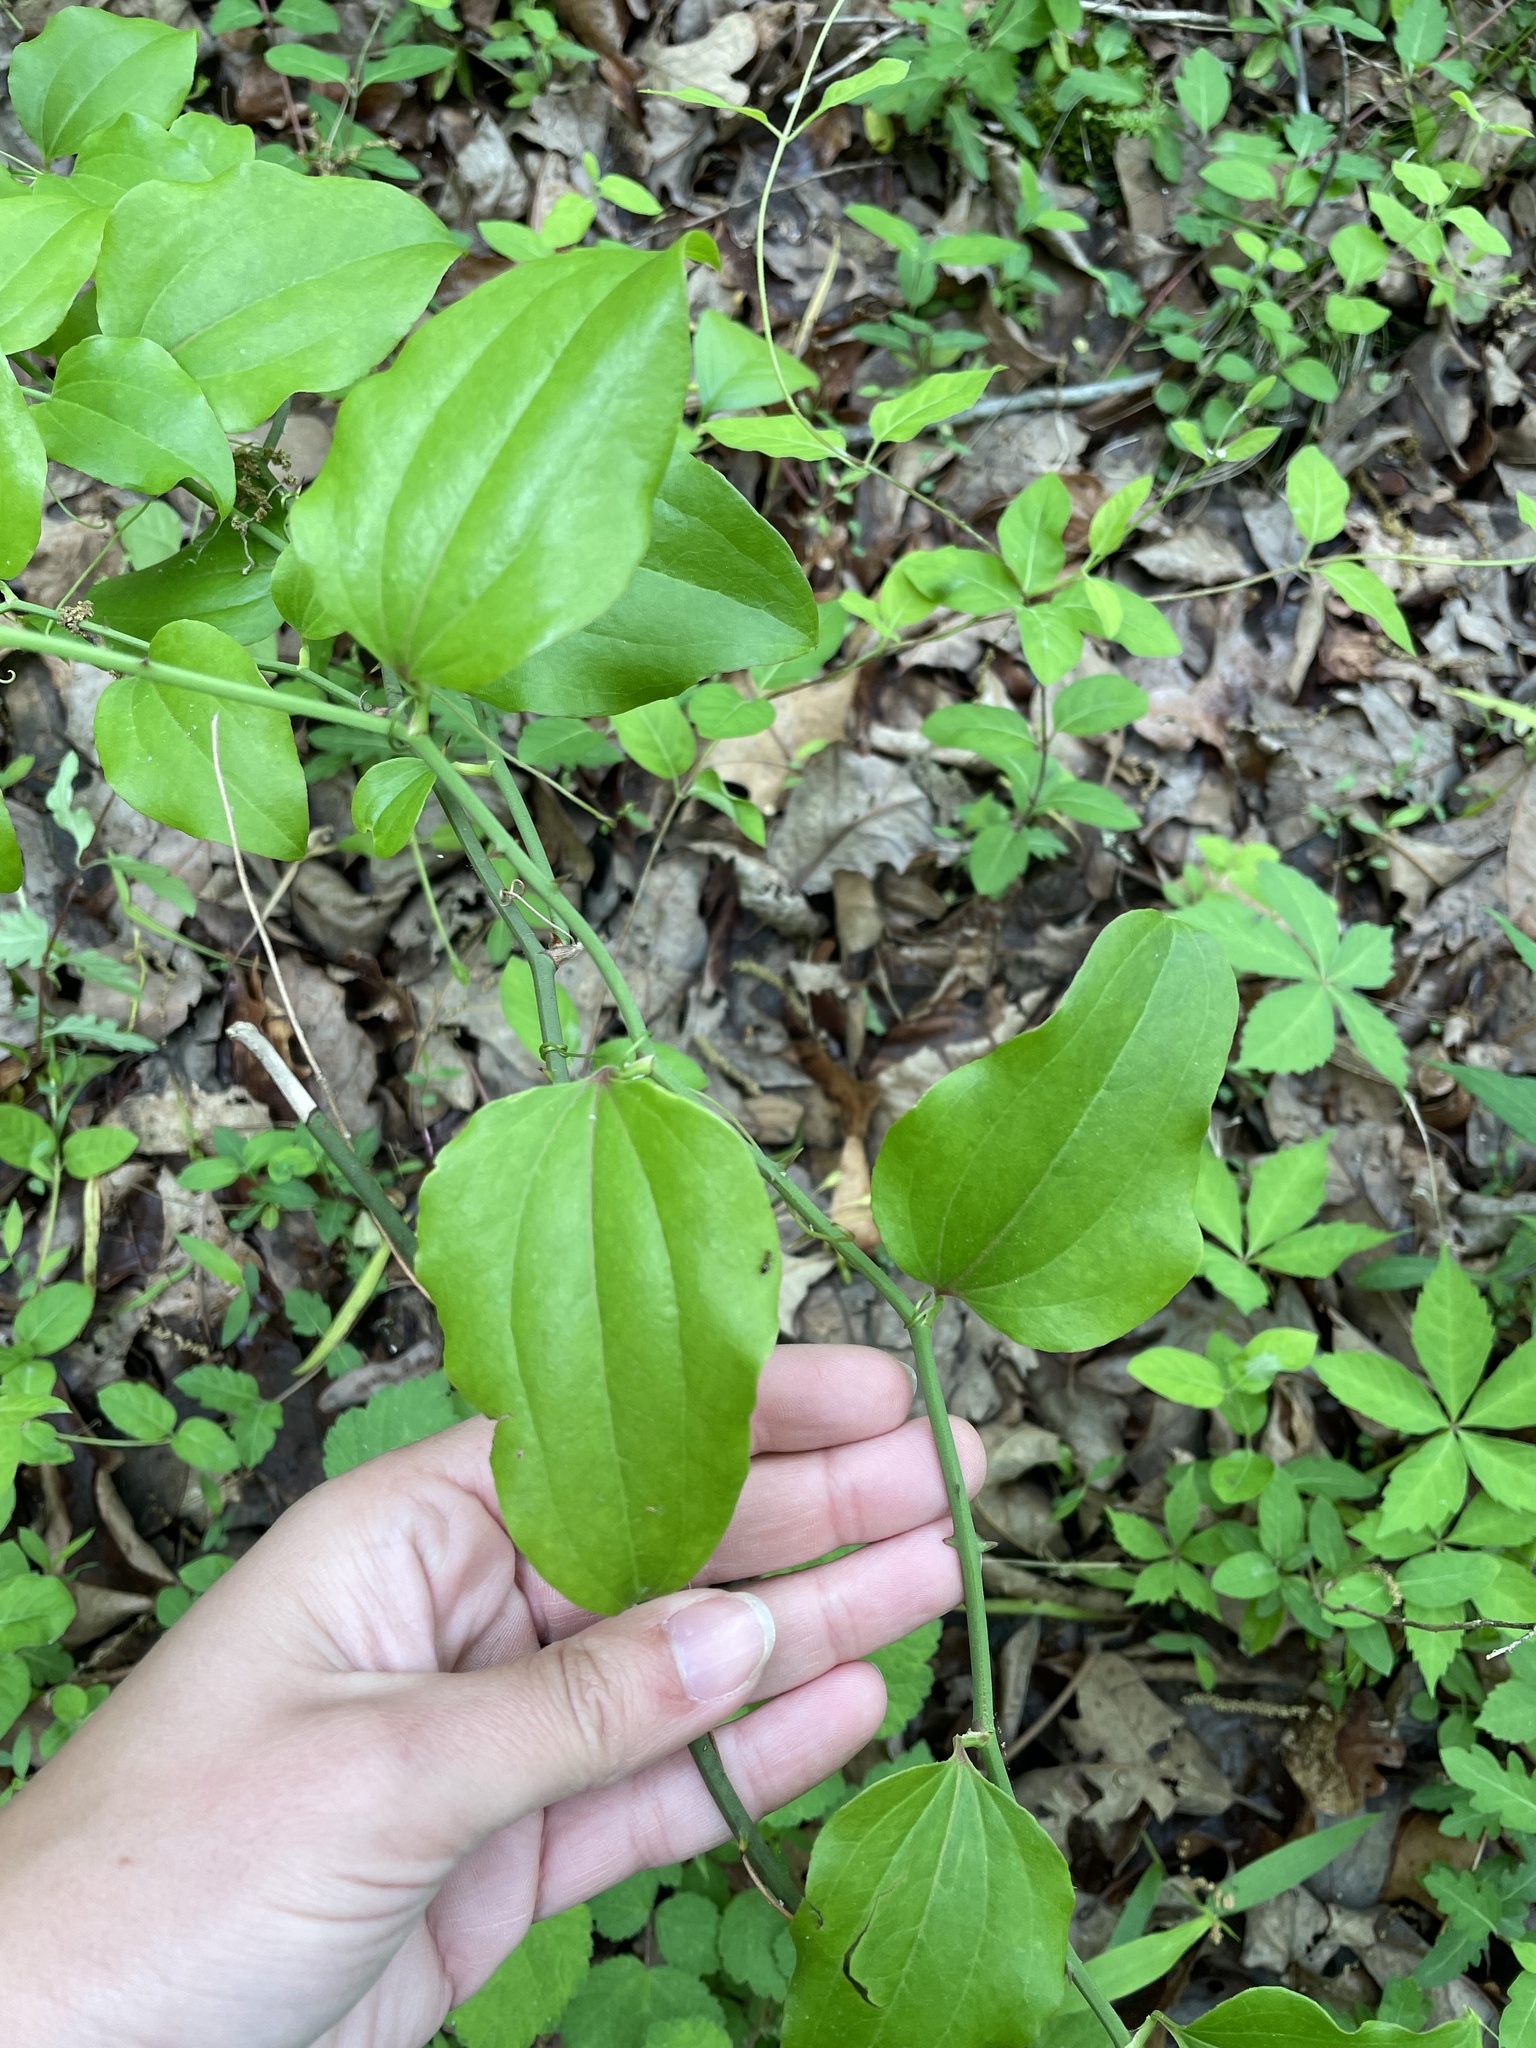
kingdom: Plantae
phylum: Tracheophyta
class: Liliopsida
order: Liliales
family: Smilacaceae
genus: Smilax
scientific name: Smilax tamnoides
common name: Hellfetter
